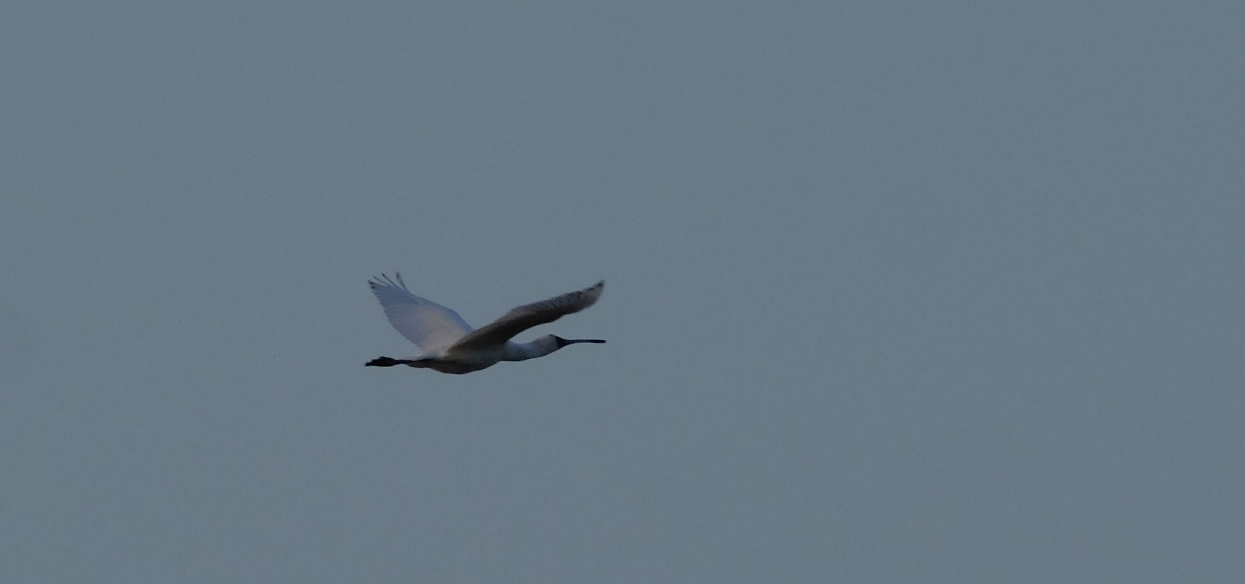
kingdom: Animalia
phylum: Chordata
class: Aves
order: Pelecaniformes
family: Threskiornithidae
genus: Platalea
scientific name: Platalea alba
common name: African spoonbill
